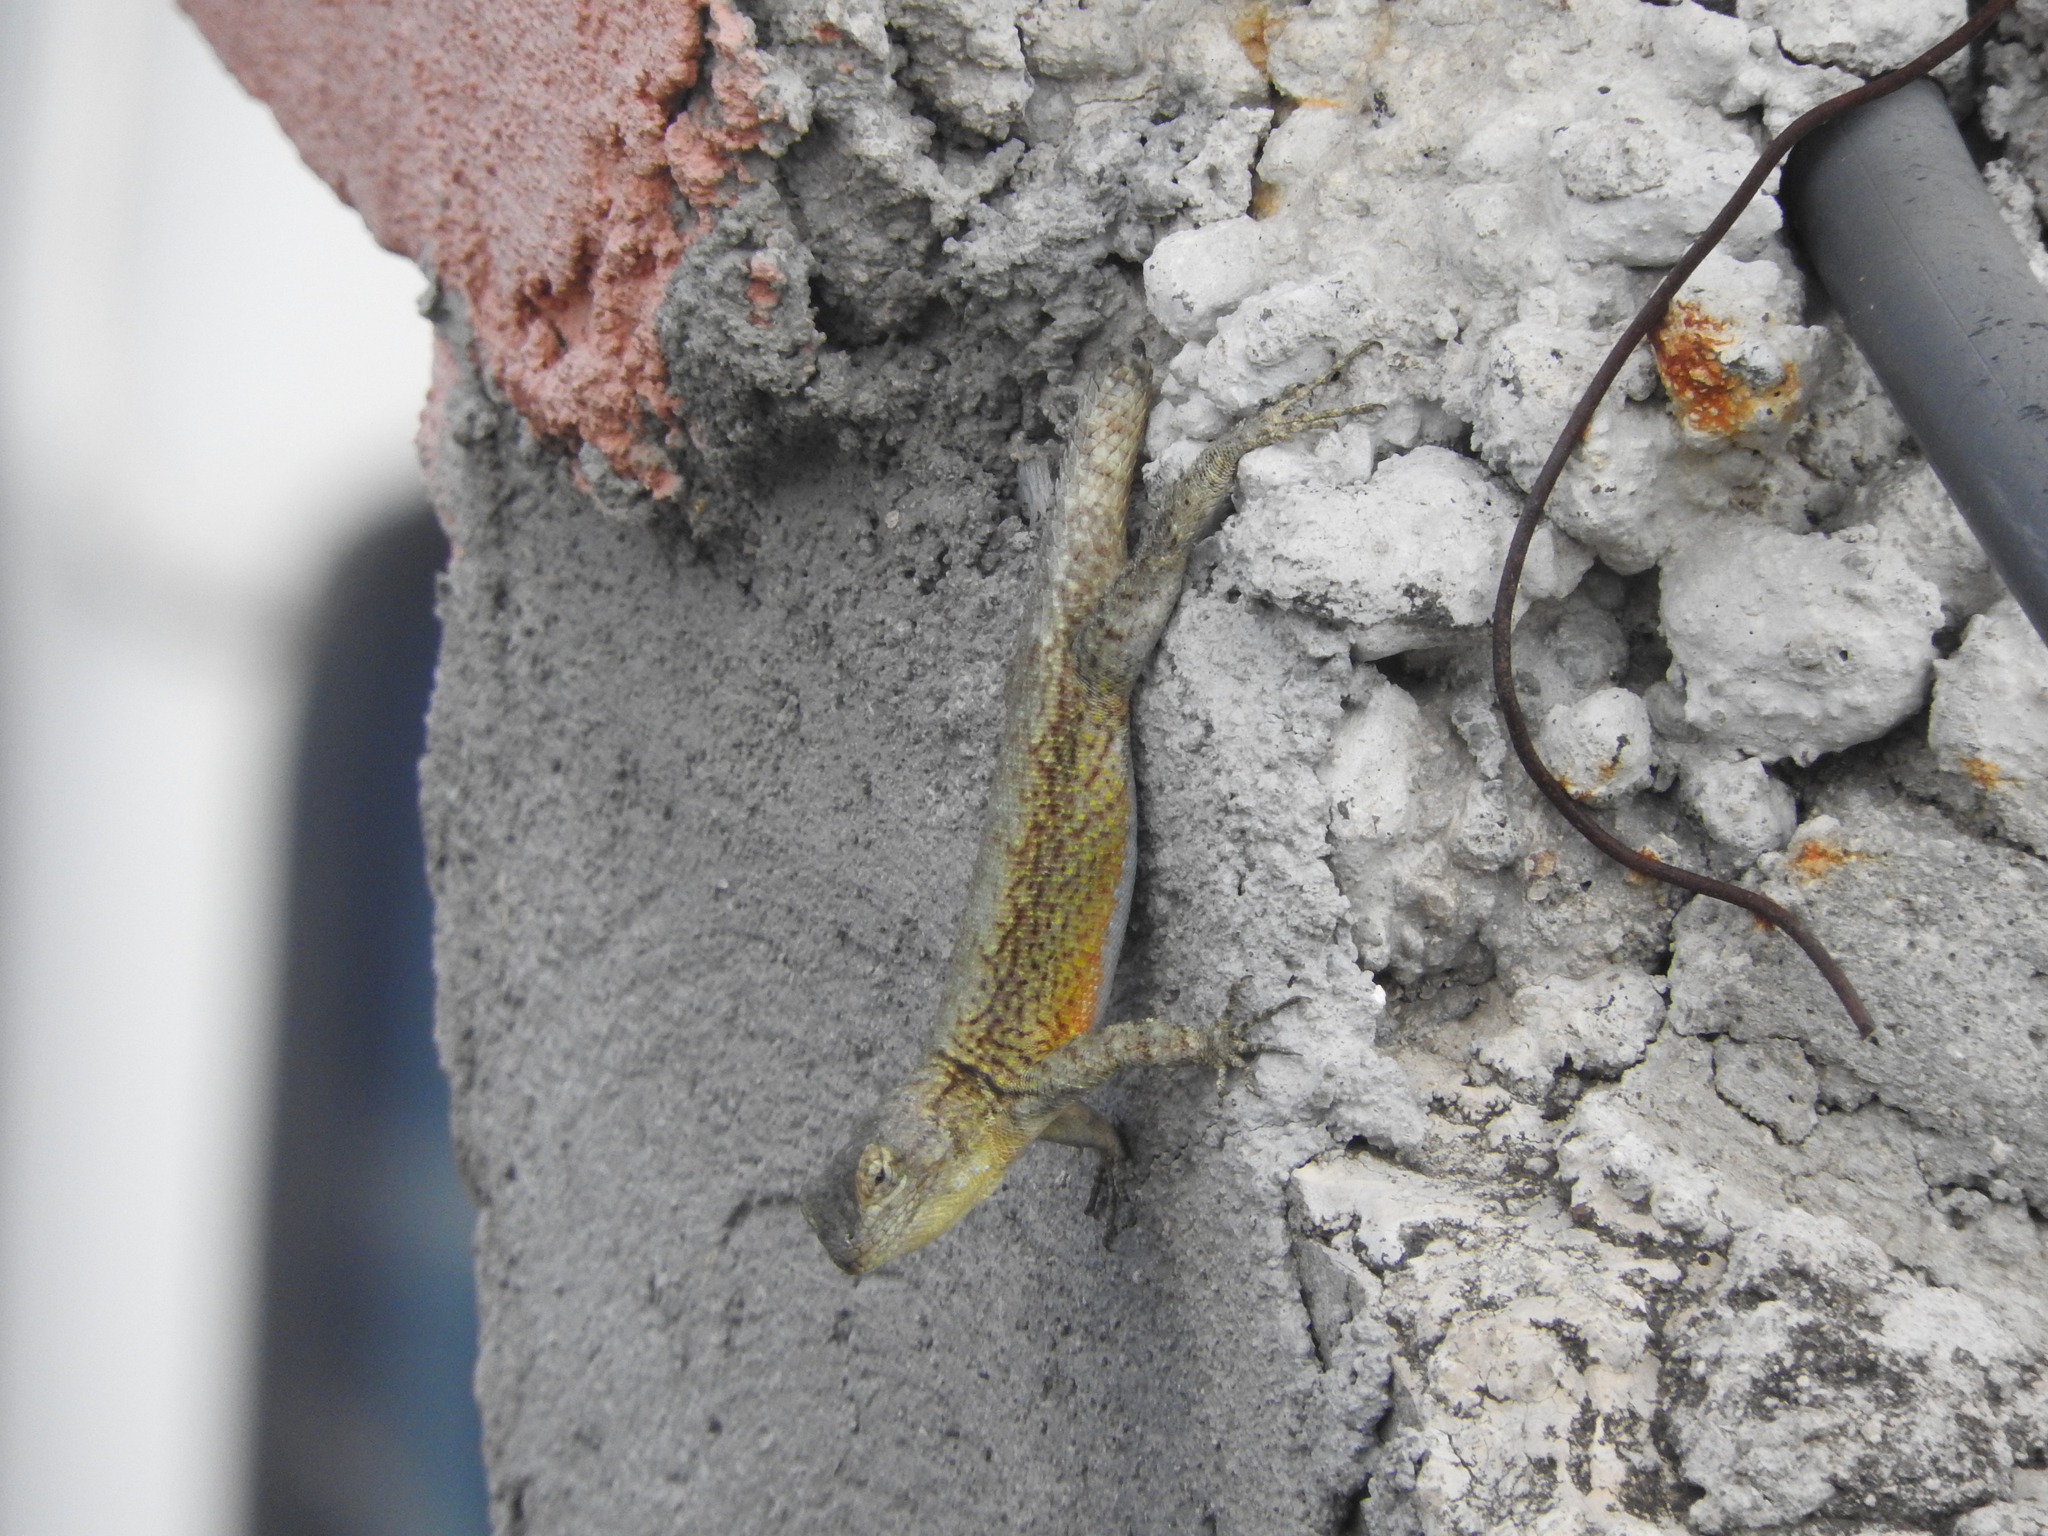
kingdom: Animalia
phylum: Chordata
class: Squamata
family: Phrynosomatidae
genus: Sceloporus
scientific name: Sceloporus grammicus
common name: Mesquite lizard
